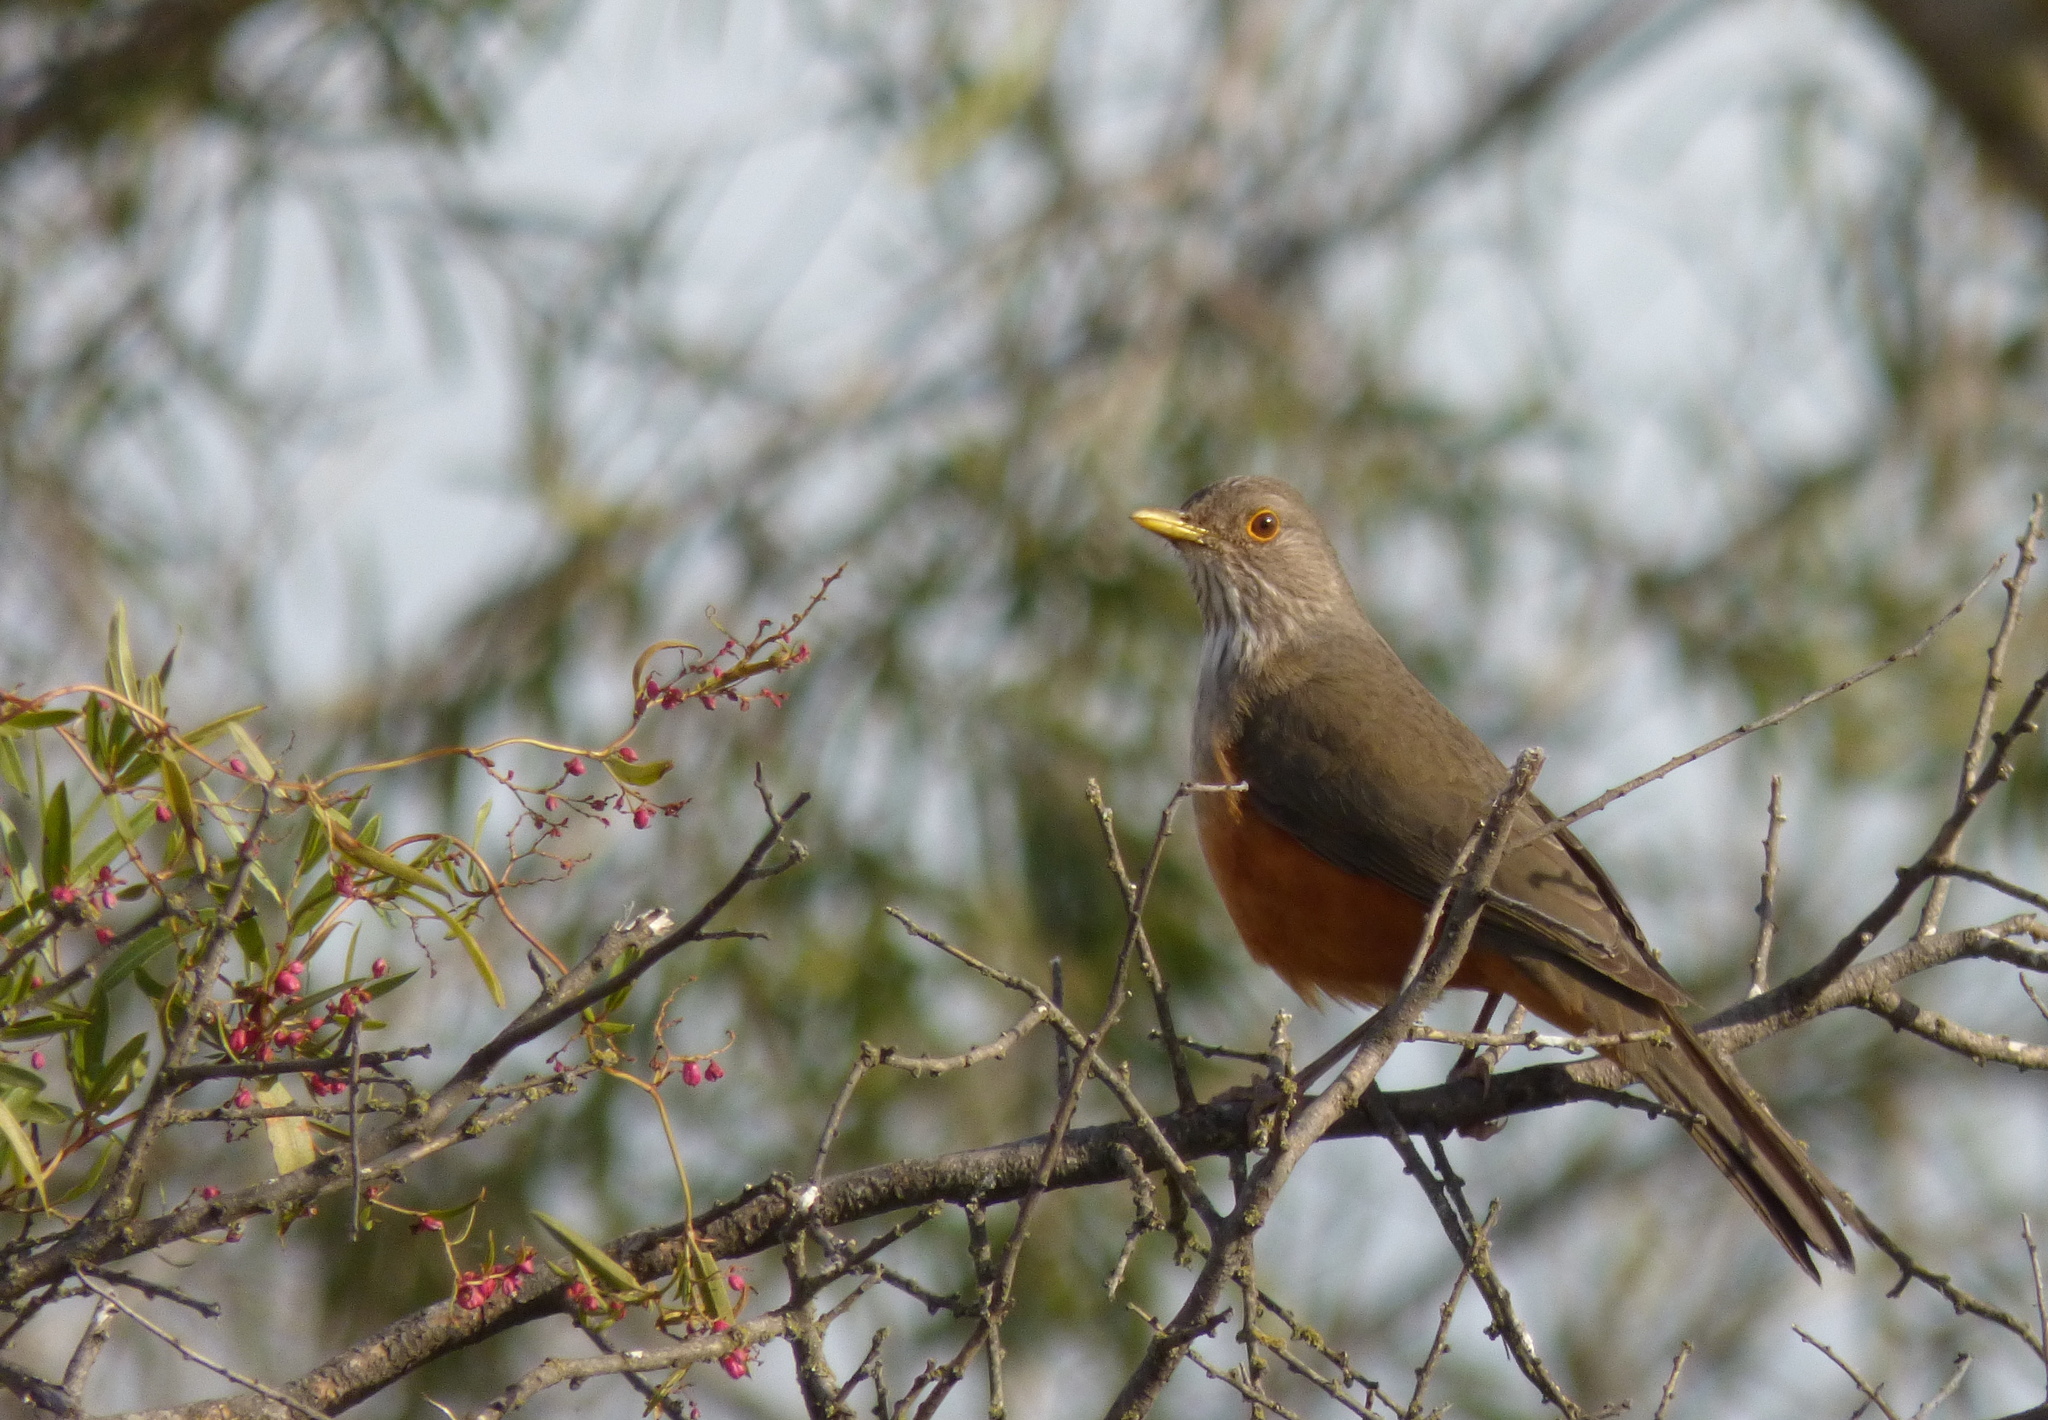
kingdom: Animalia
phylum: Chordata
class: Aves
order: Passeriformes
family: Turdidae
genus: Turdus
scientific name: Turdus rufiventris
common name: Rufous-bellied thrush
